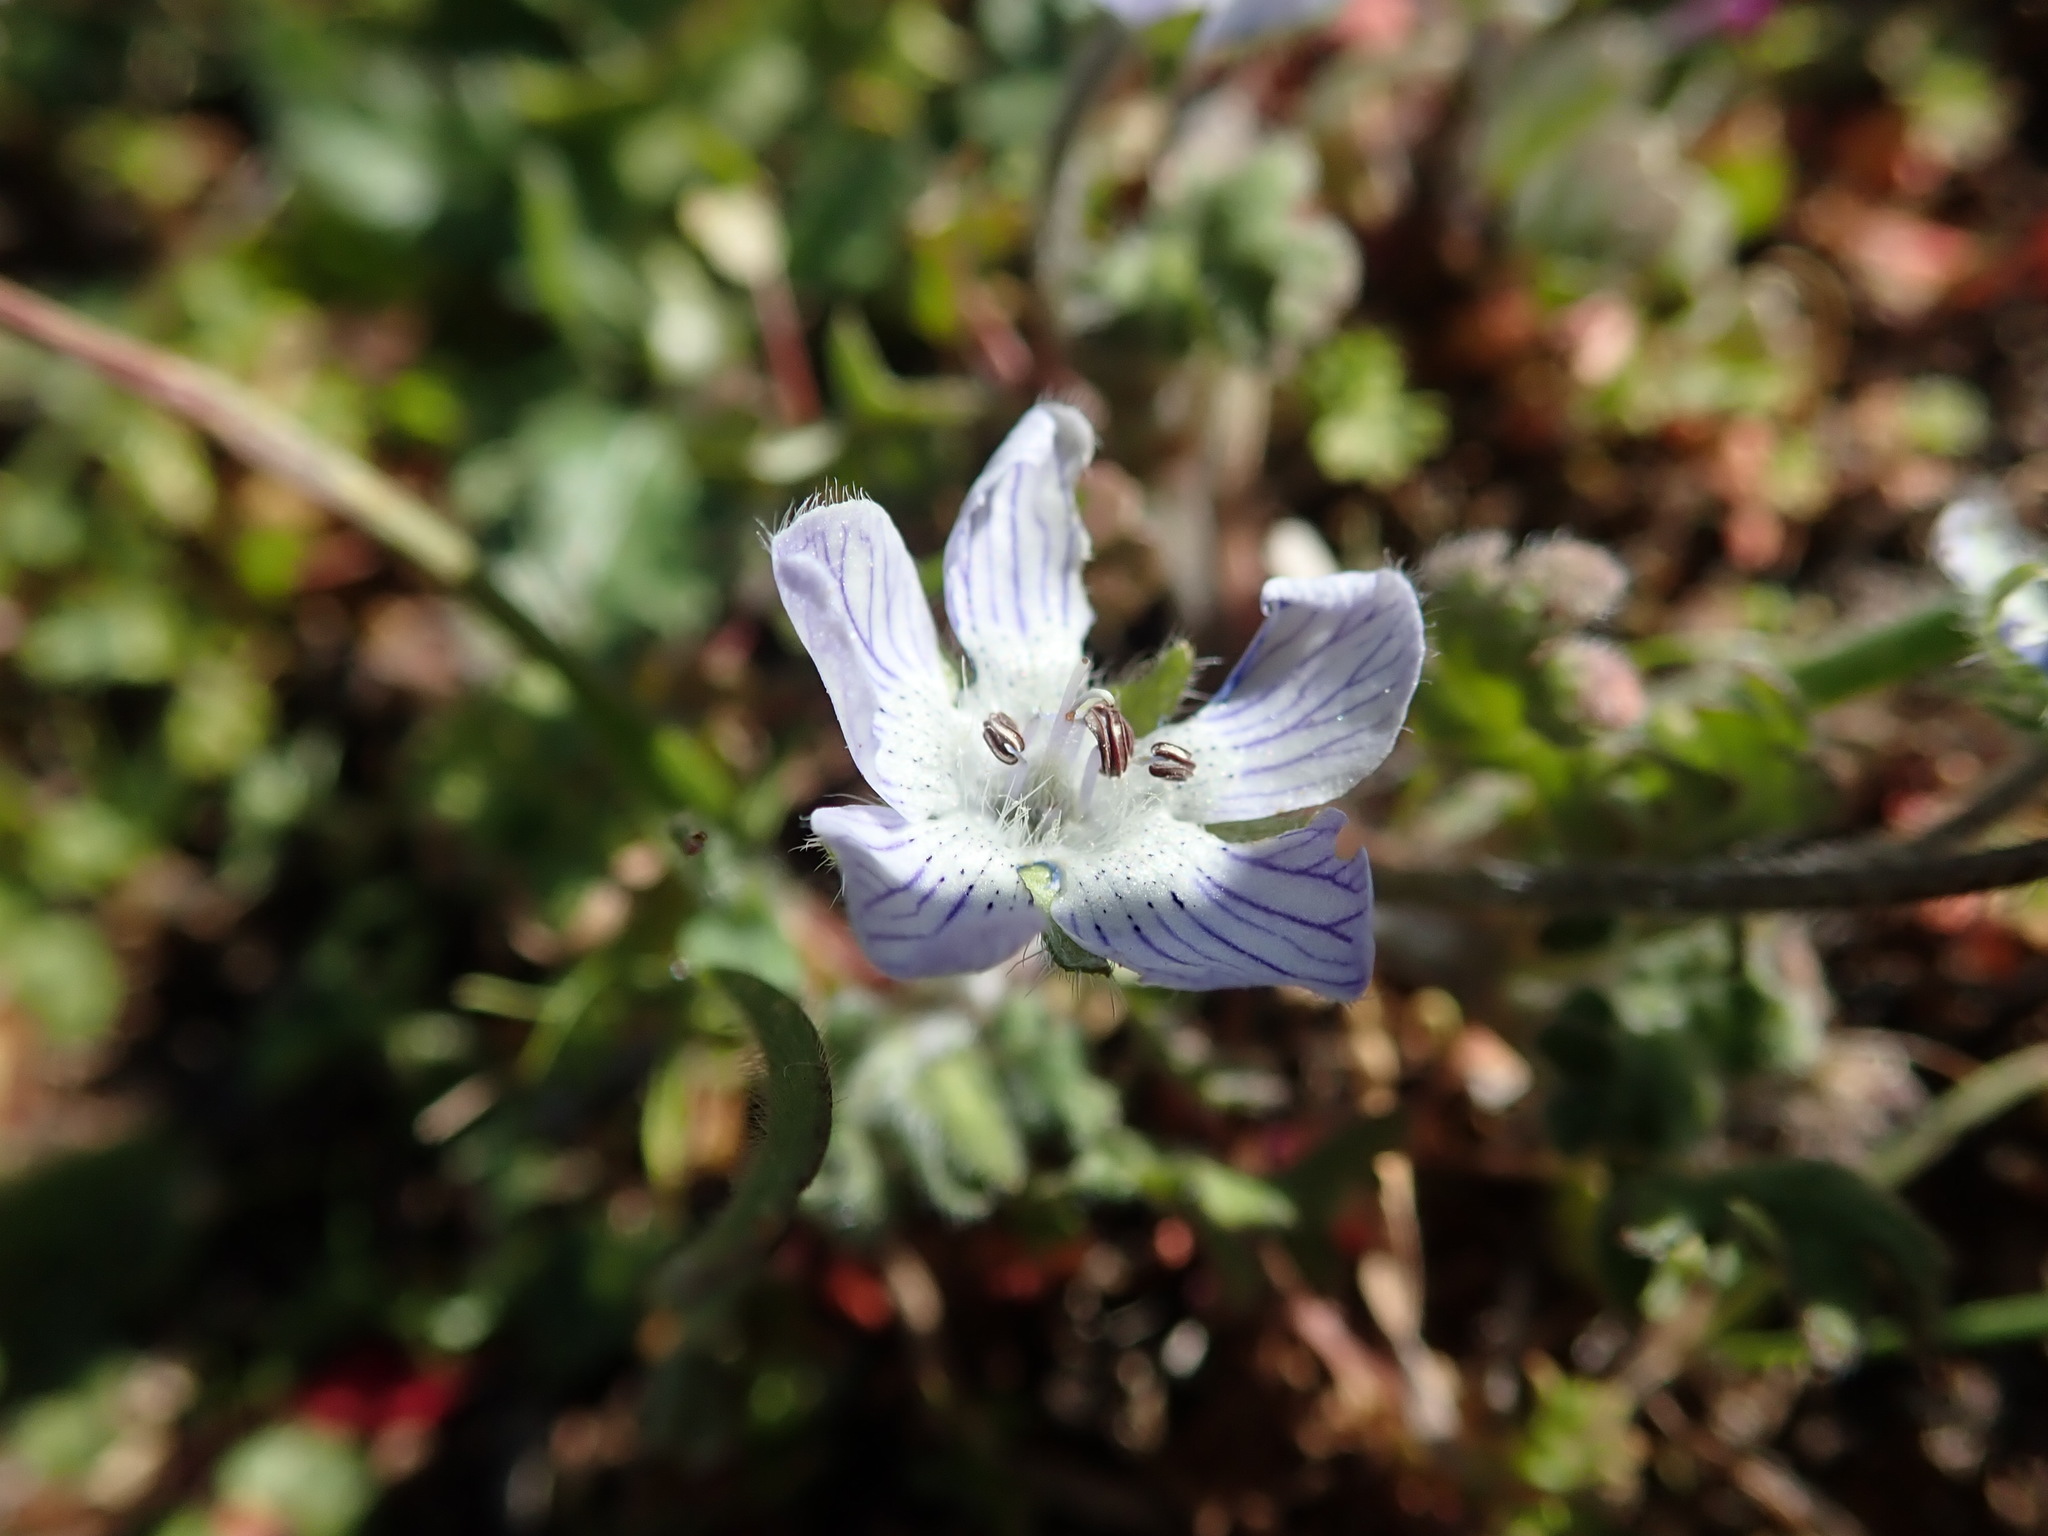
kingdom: Plantae
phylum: Tracheophyta
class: Magnoliopsida
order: Boraginales
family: Hydrophyllaceae
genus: Nemophila
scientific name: Nemophila menziesii
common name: Baby's-blue-eyes
